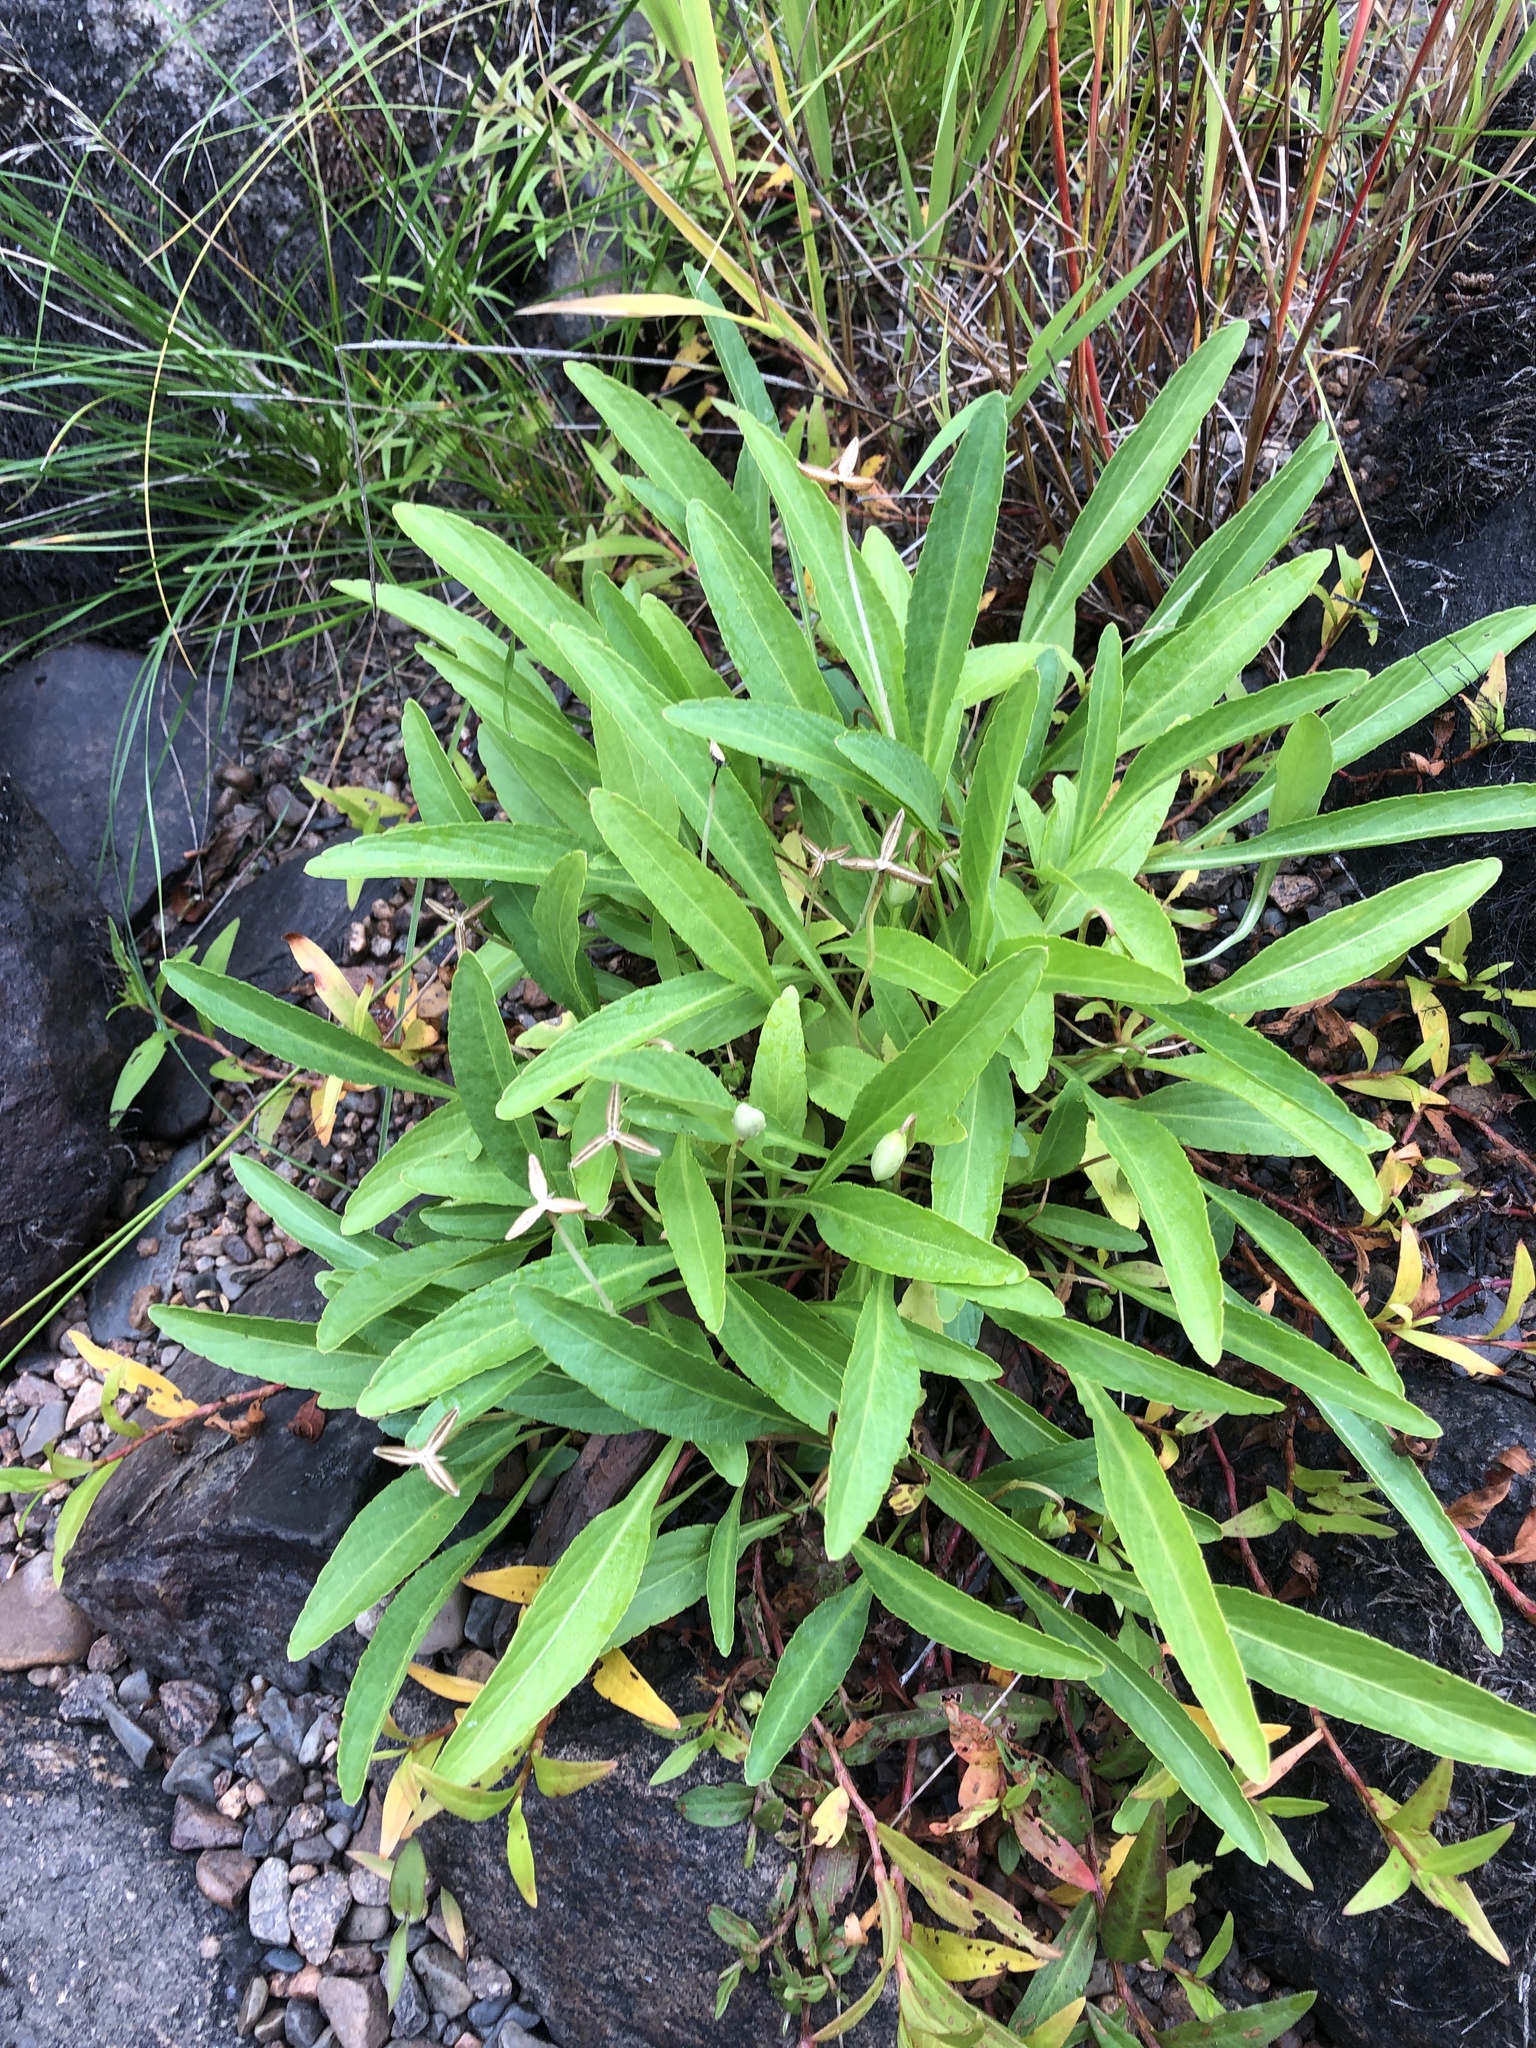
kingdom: Plantae
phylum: Tracheophyta
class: Magnoliopsida
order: Malpighiales
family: Violaceae
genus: Viola
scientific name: Viola lanceolata
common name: Bog white violet
